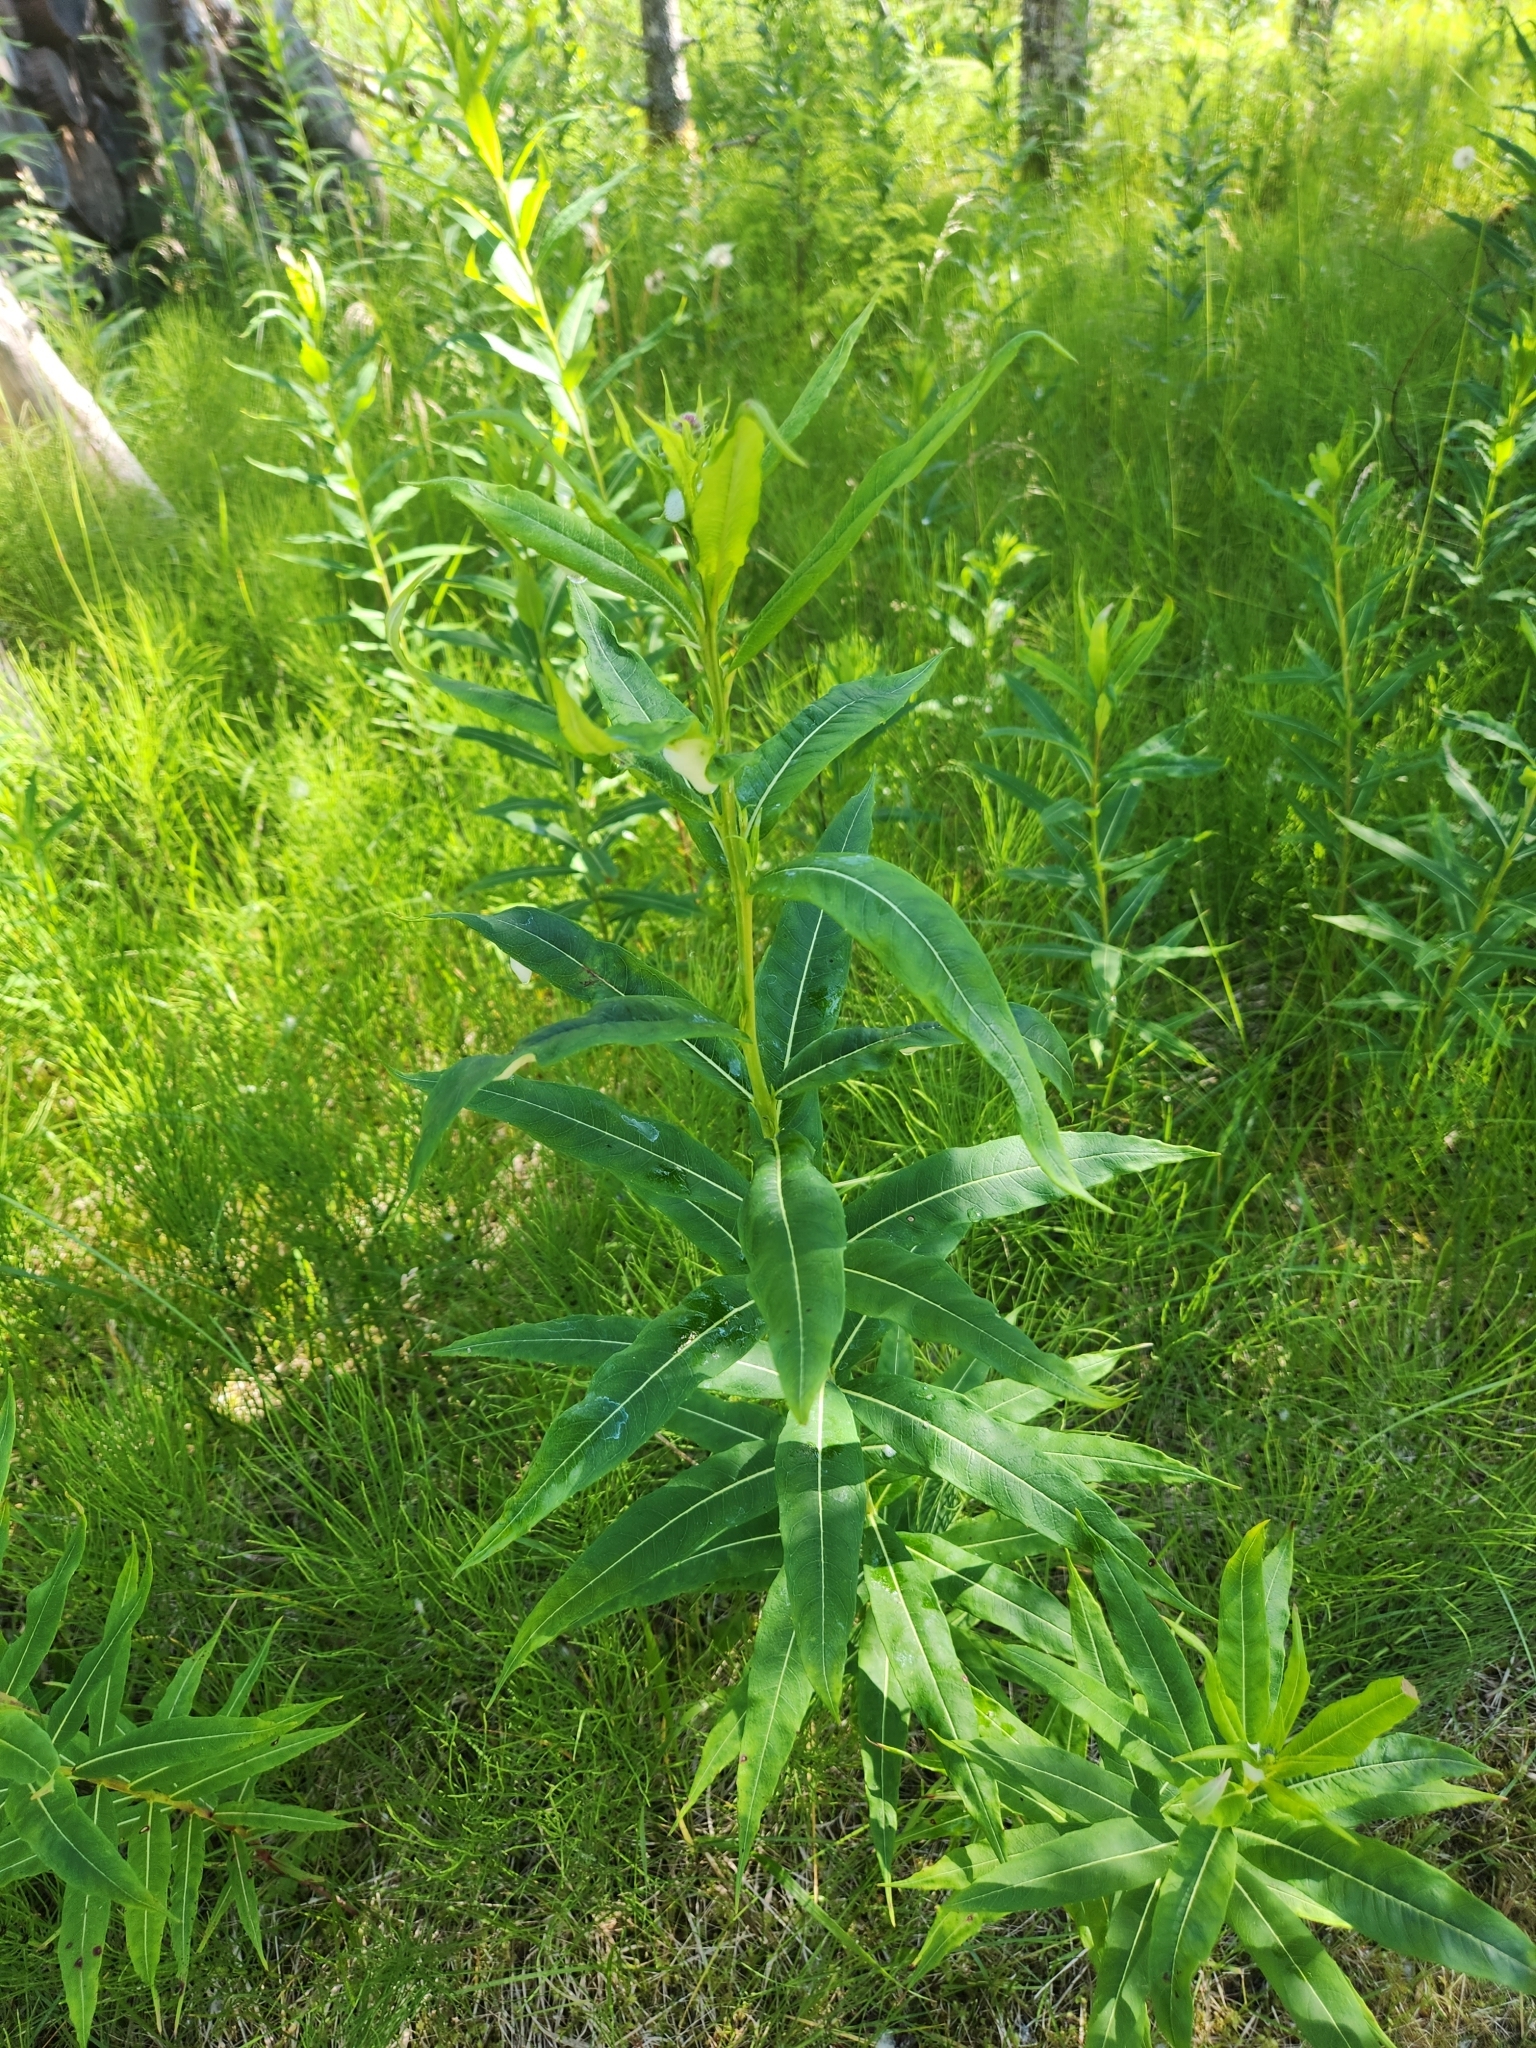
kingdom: Plantae
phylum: Tracheophyta
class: Magnoliopsida
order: Myrtales
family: Onagraceae
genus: Chamaenerion
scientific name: Chamaenerion angustifolium
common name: Fireweed
